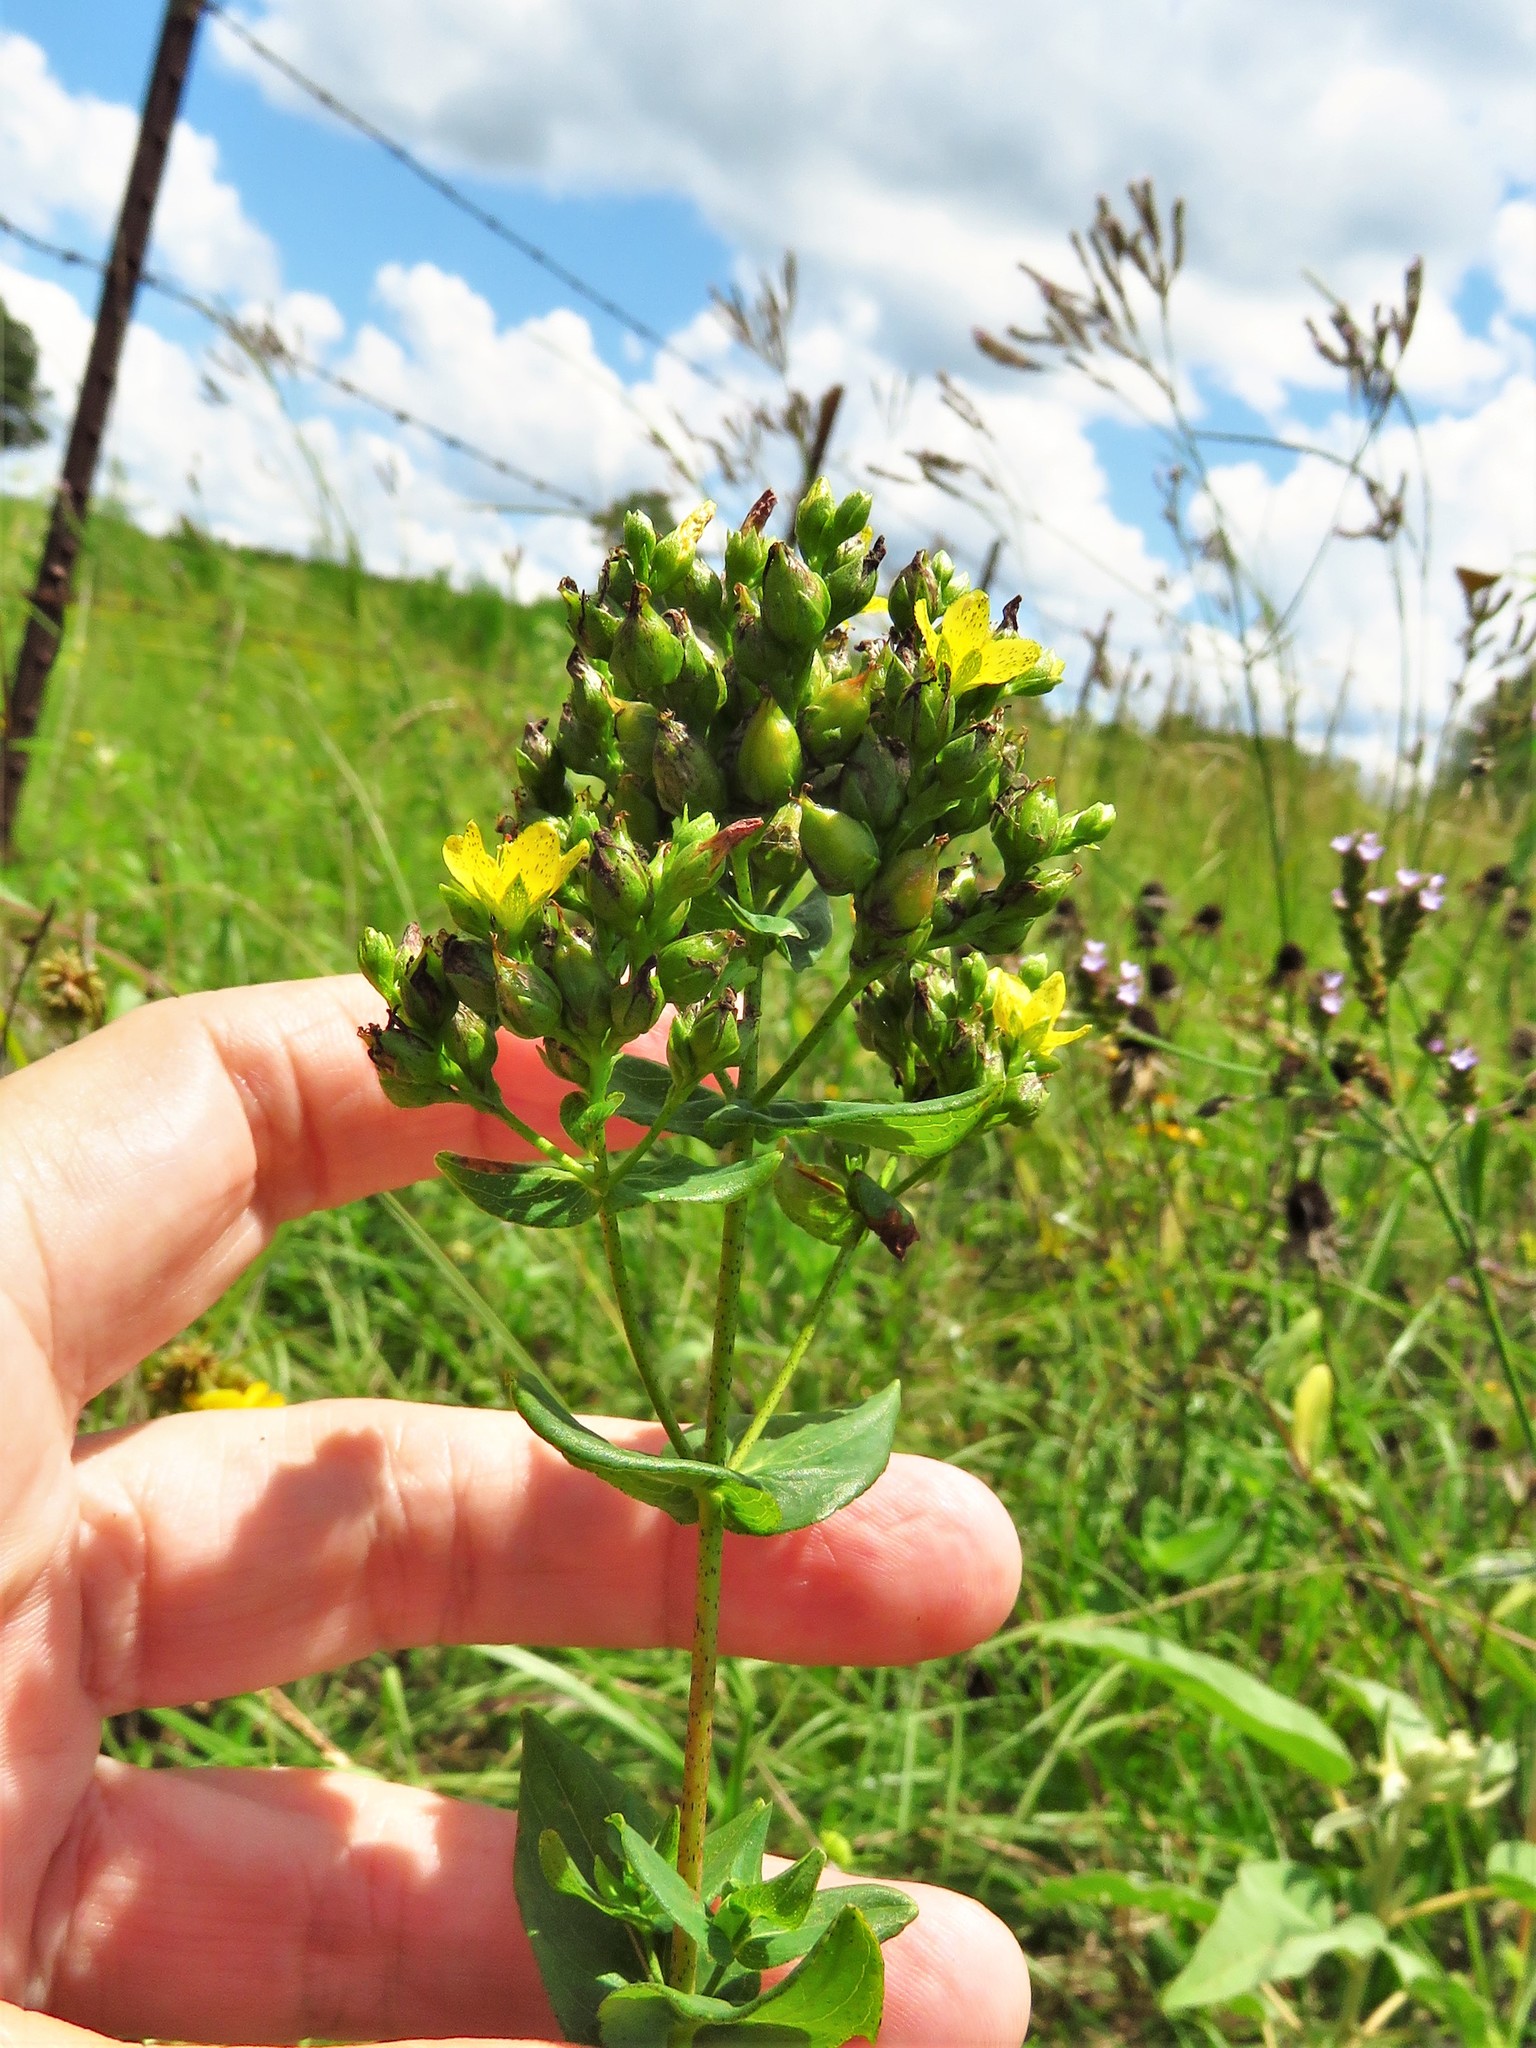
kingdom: Plantae
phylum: Tracheophyta
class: Magnoliopsida
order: Malpighiales
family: Hypericaceae
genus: Hypericum
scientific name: Hypericum punctatum
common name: Spotted st. john's-wort
